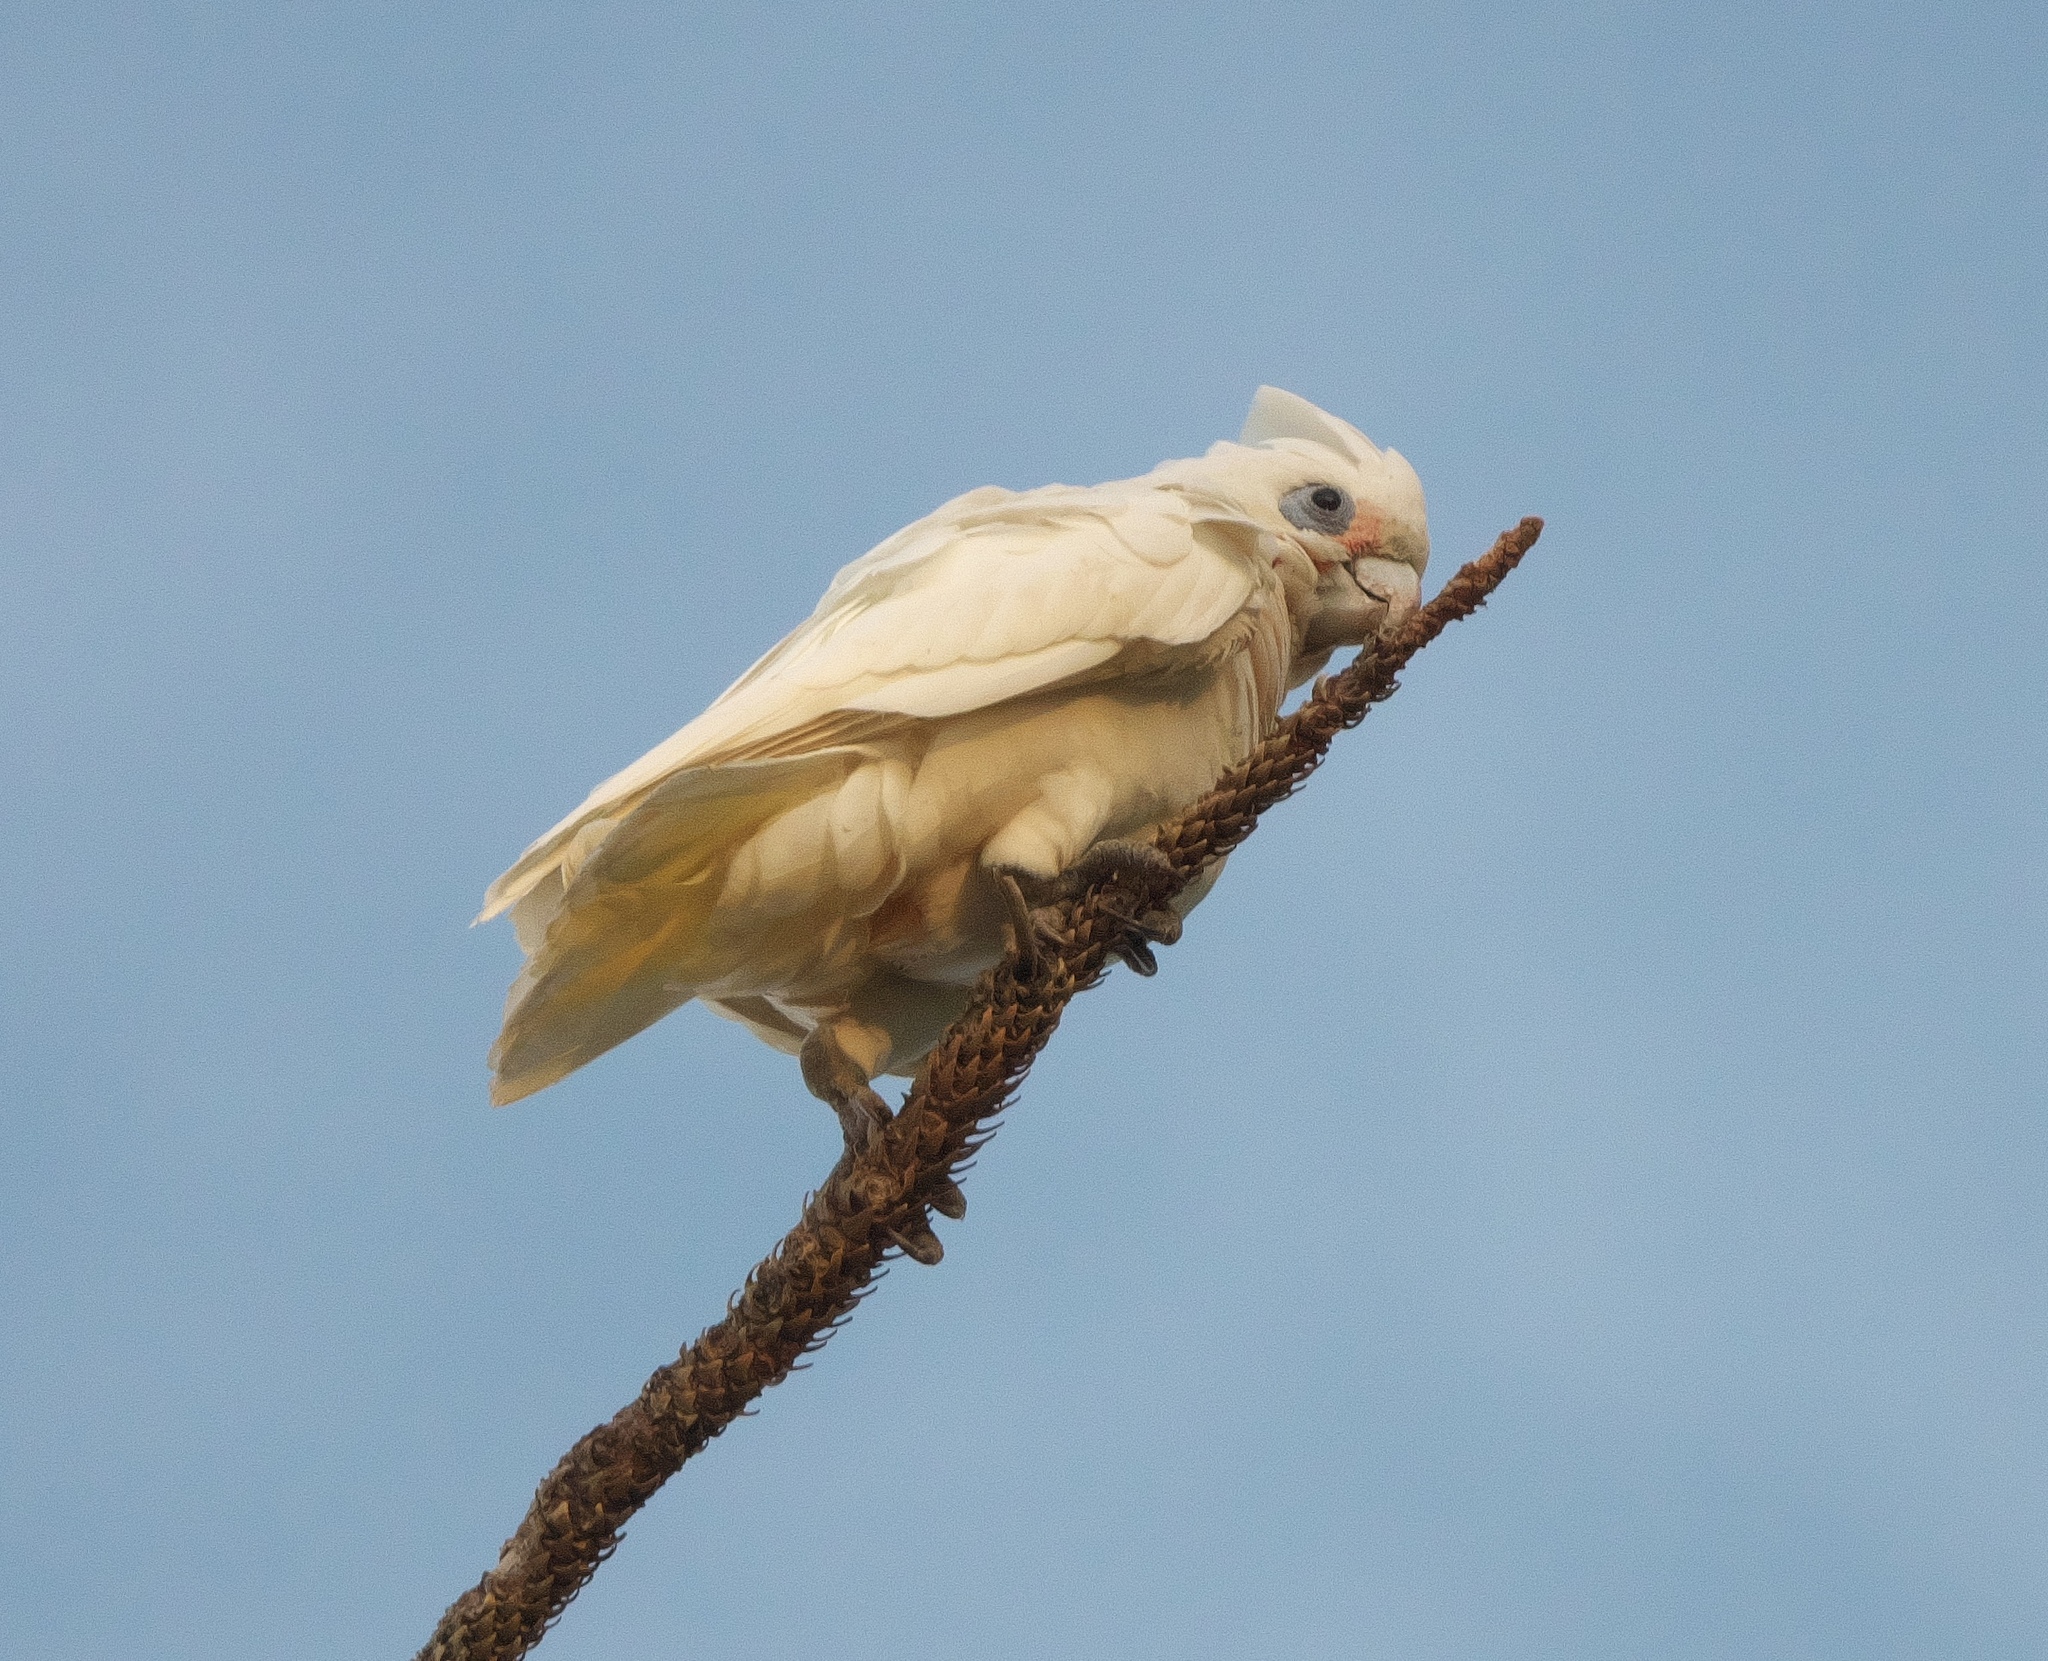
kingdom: Animalia
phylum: Chordata
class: Aves
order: Psittaciformes
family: Psittacidae
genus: Cacatua
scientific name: Cacatua sanguinea
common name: Little corella
